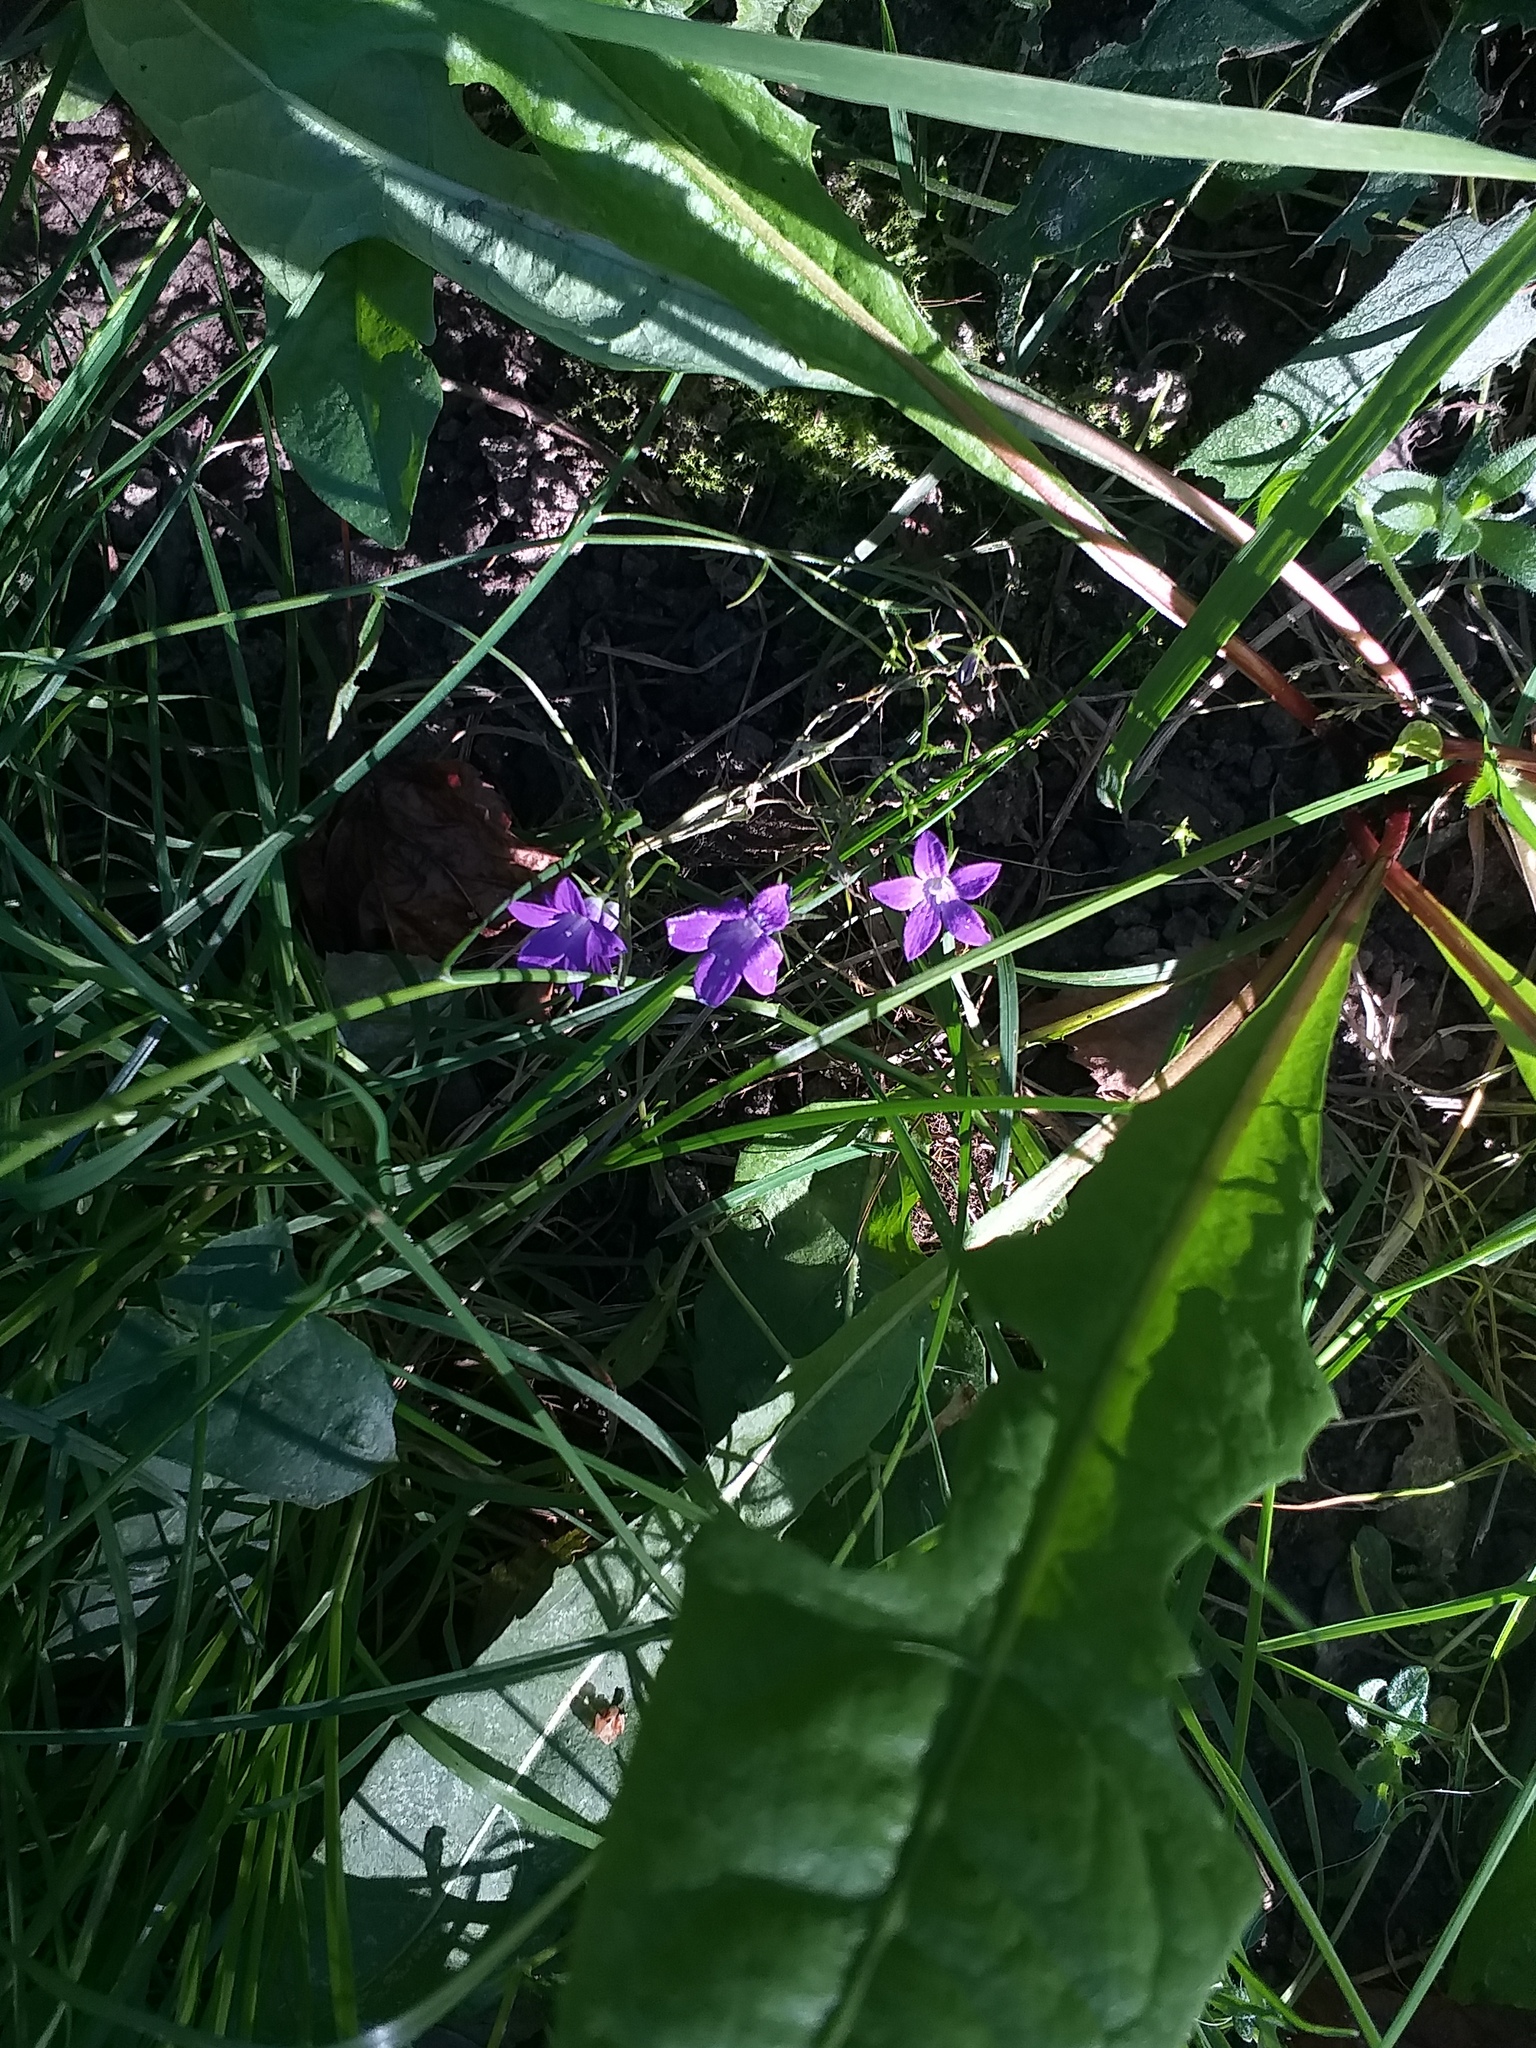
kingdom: Plantae
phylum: Tracheophyta
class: Magnoliopsida
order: Asterales
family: Campanulaceae
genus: Campanula
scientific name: Campanula patula
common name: Spreading bellflower
